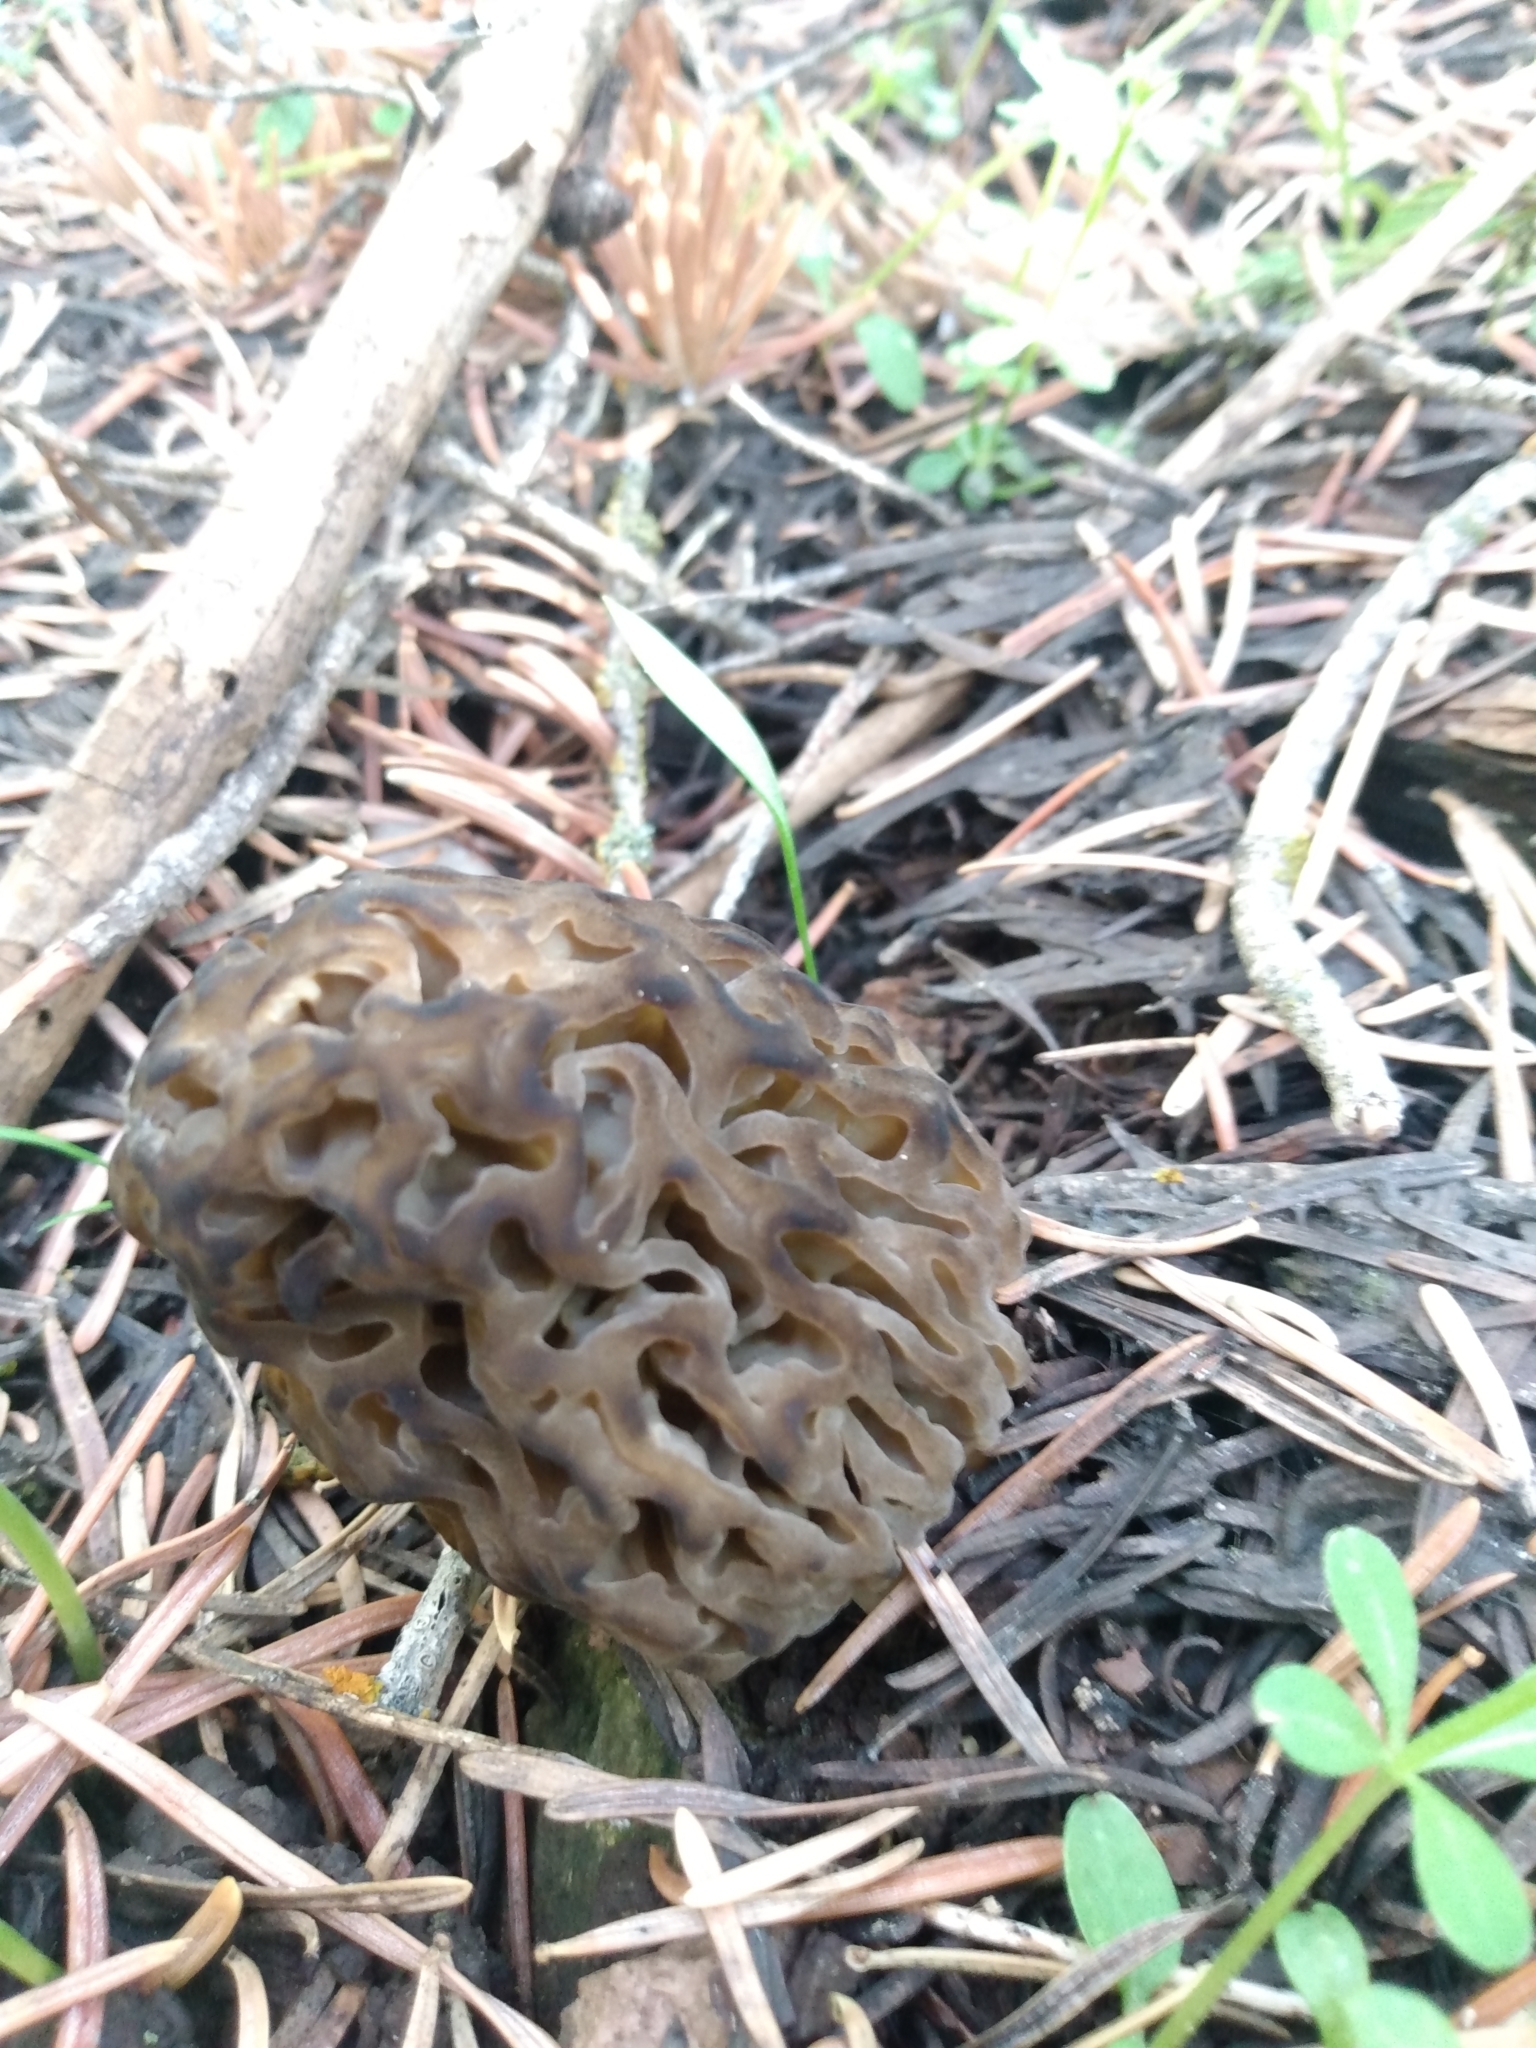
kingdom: Fungi
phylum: Ascomycota
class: Pezizomycetes
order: Pezizales
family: Morchellaceae
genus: Morchella
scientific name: Morchella snyderi
